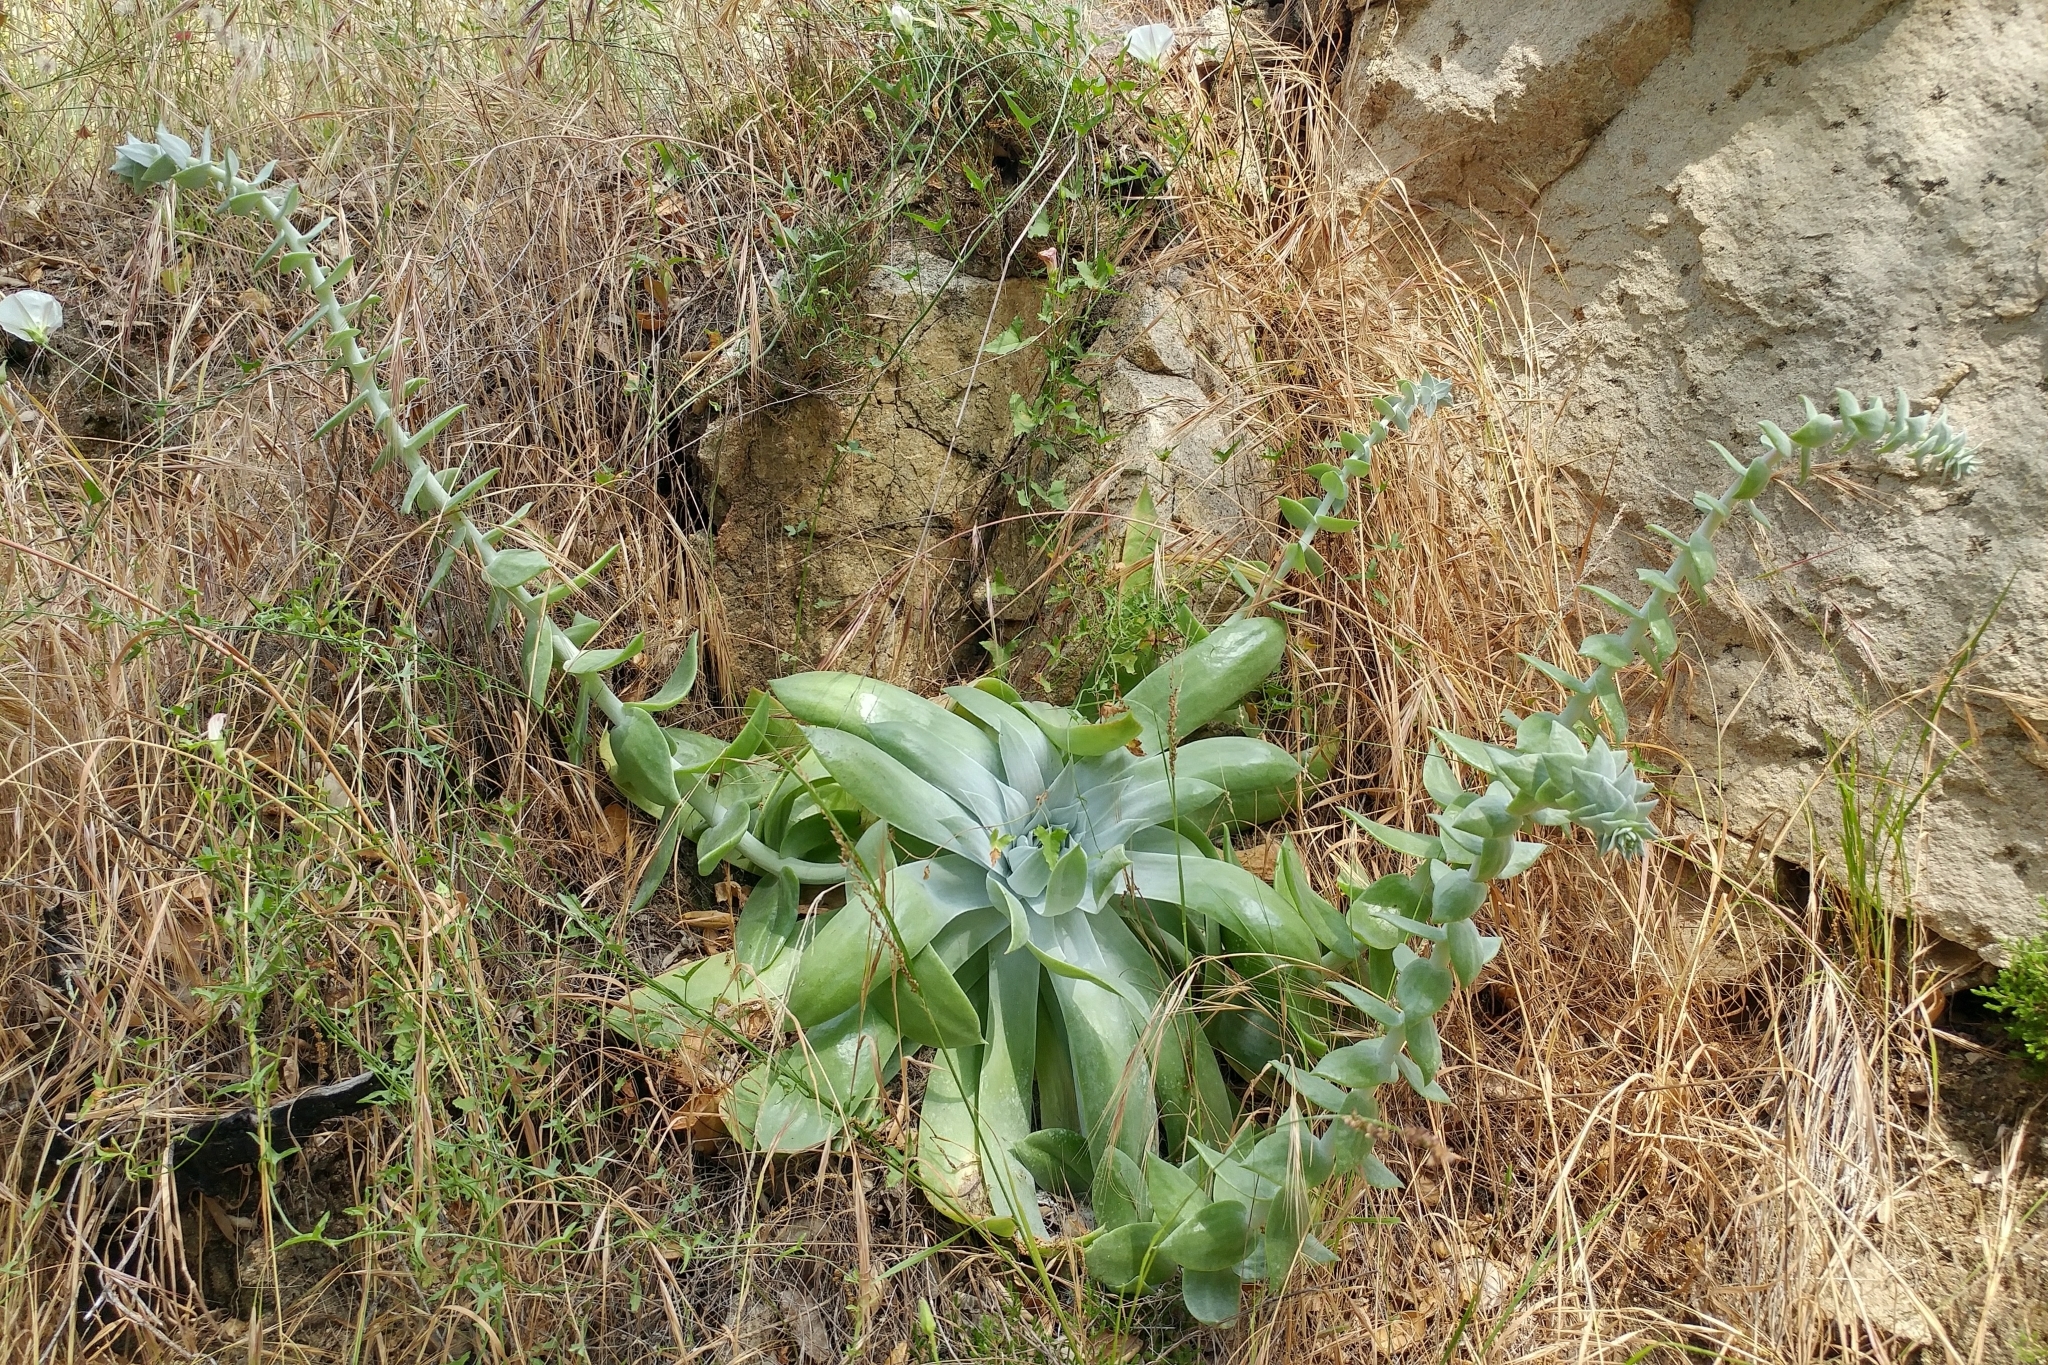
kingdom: Plantae
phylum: Tracheophyta
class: Magnoliopsida
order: Saxifragales
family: Crassulaceae
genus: Dudleya
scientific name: Dudleya pulverulenta
